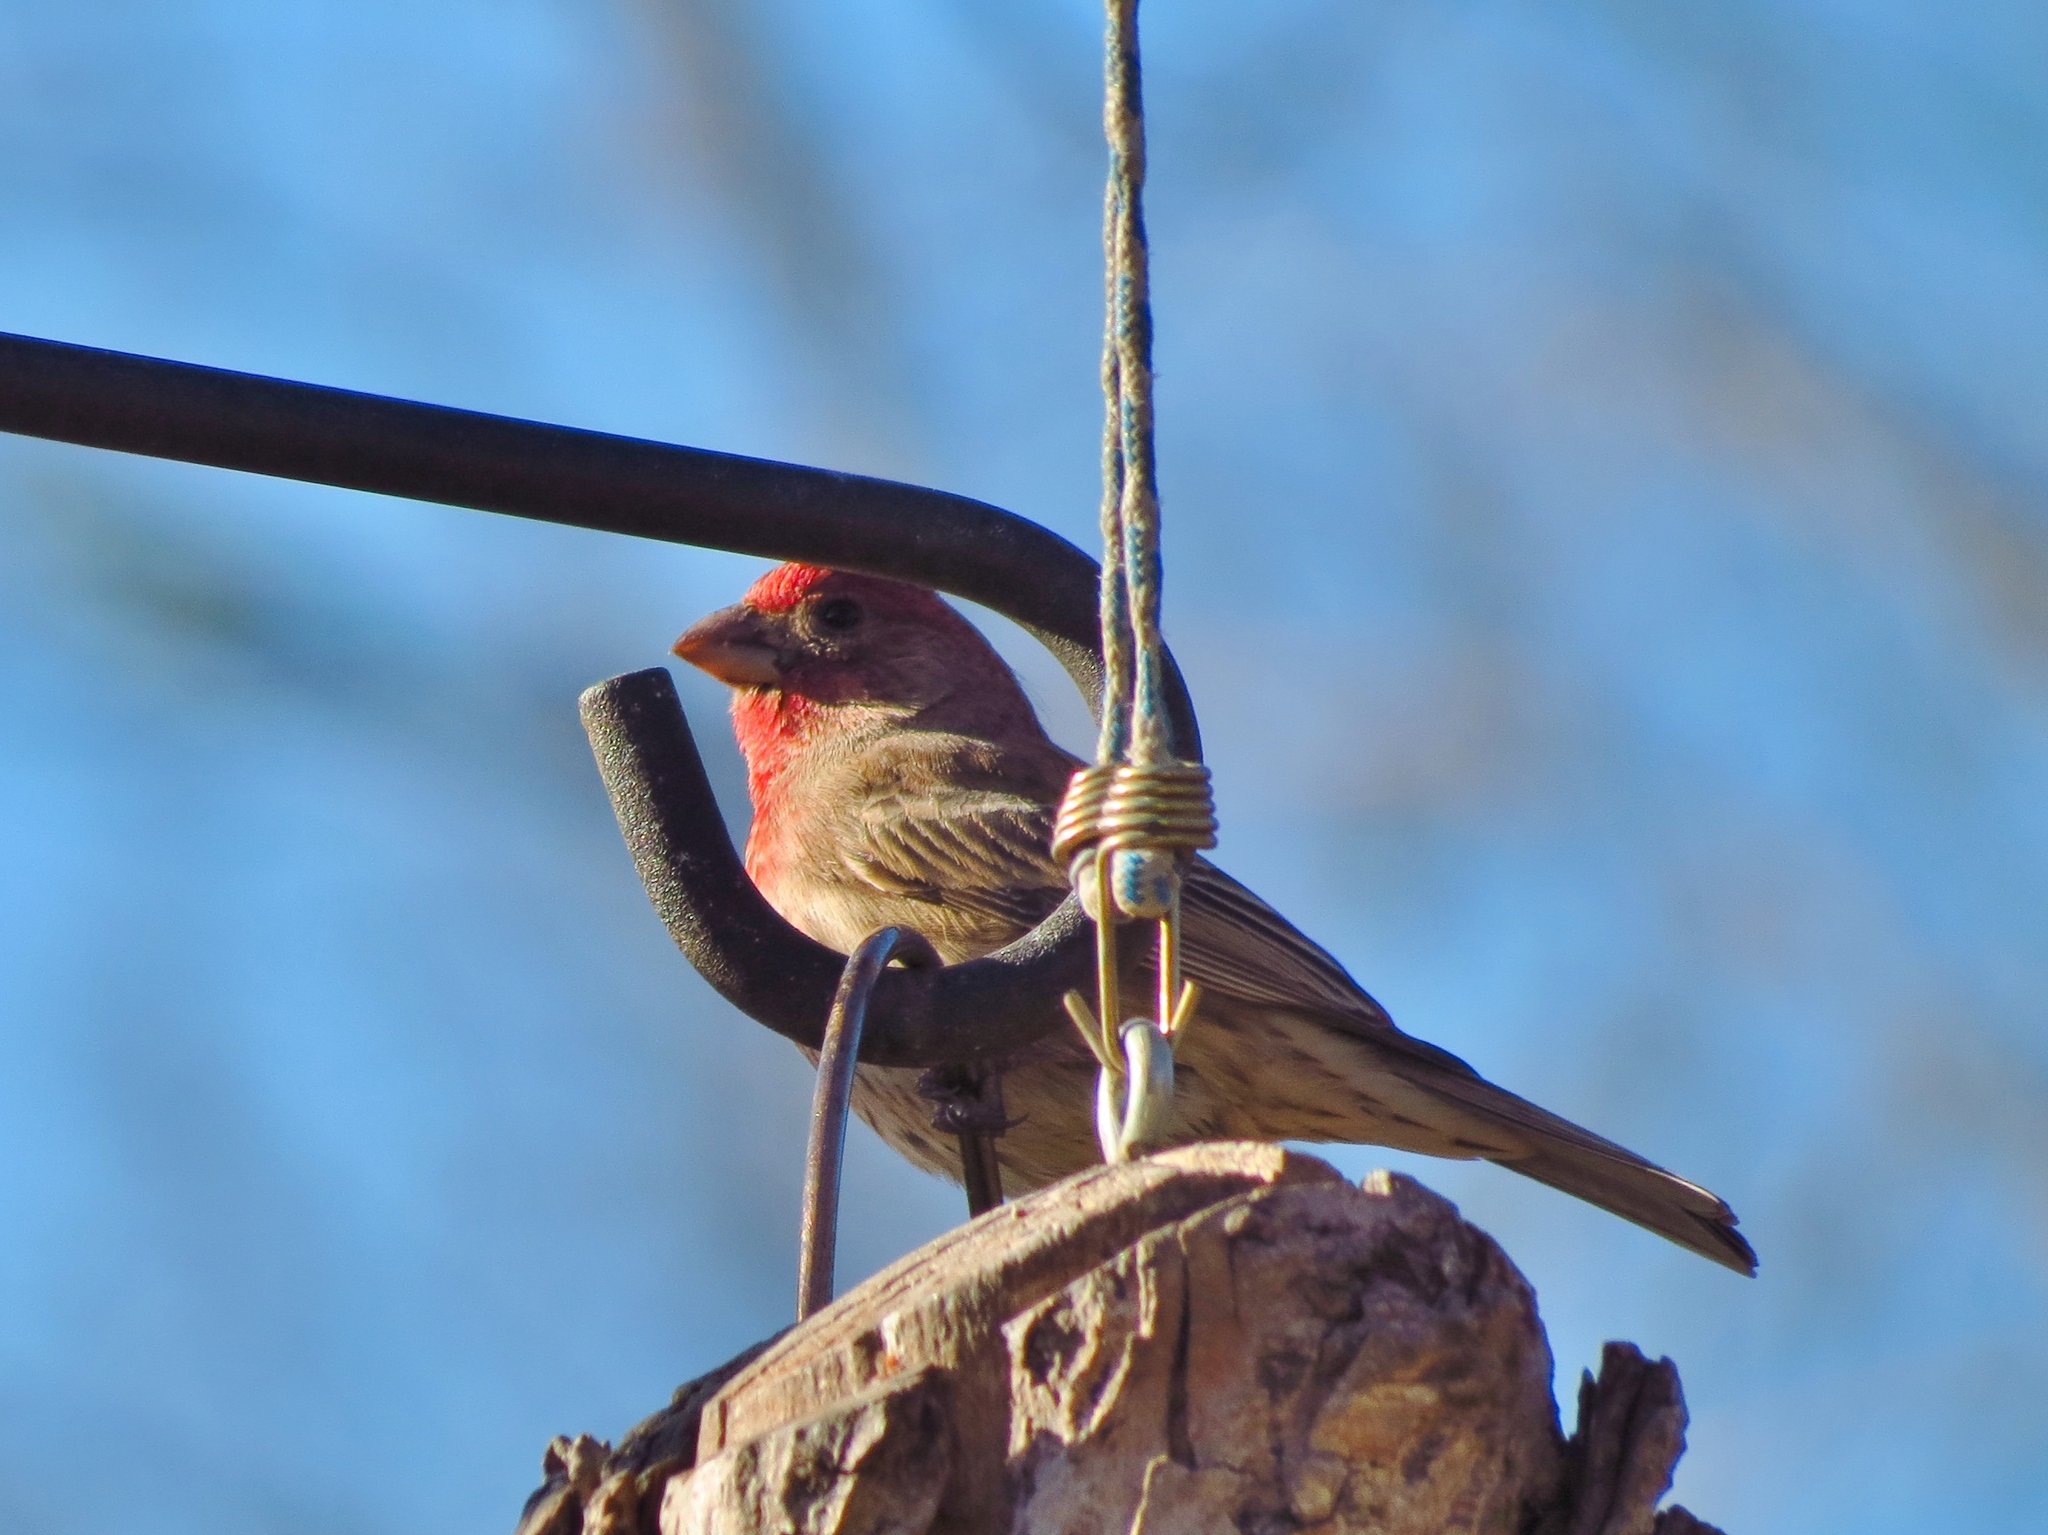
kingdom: Animalia
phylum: Chordata
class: Aves
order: Passeriformes
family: Fringillidae
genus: Haemorhous
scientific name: Haemorhous mexicanus
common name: House finch
